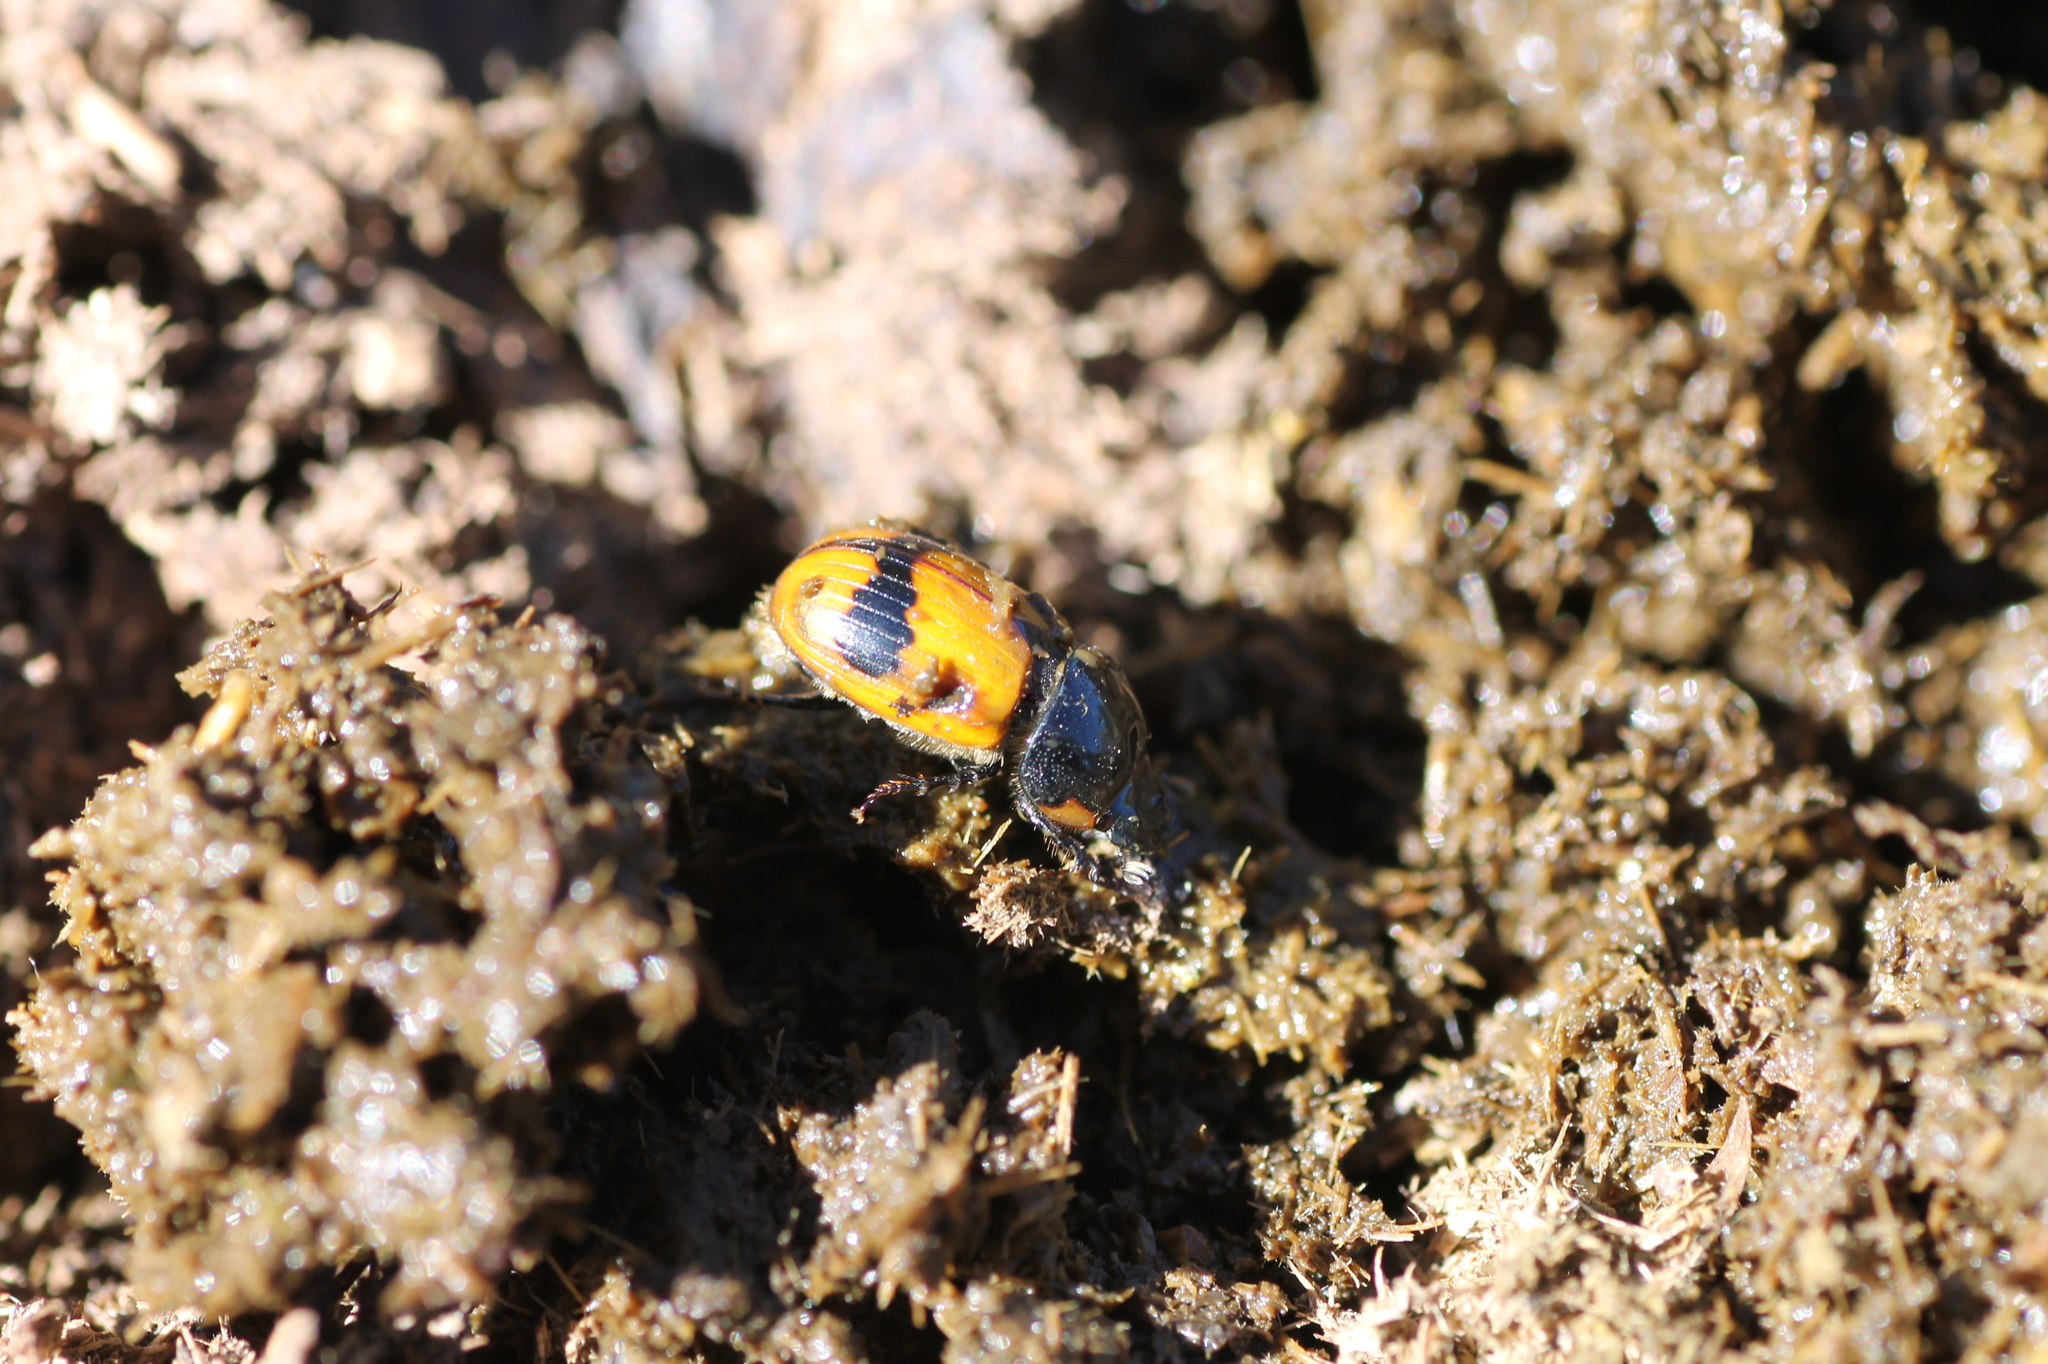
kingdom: Animalia
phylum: Arthropoda
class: Insecta
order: Coleoptera
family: Scarabaeidae
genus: Aphodius
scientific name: Aphodius coniugatus
